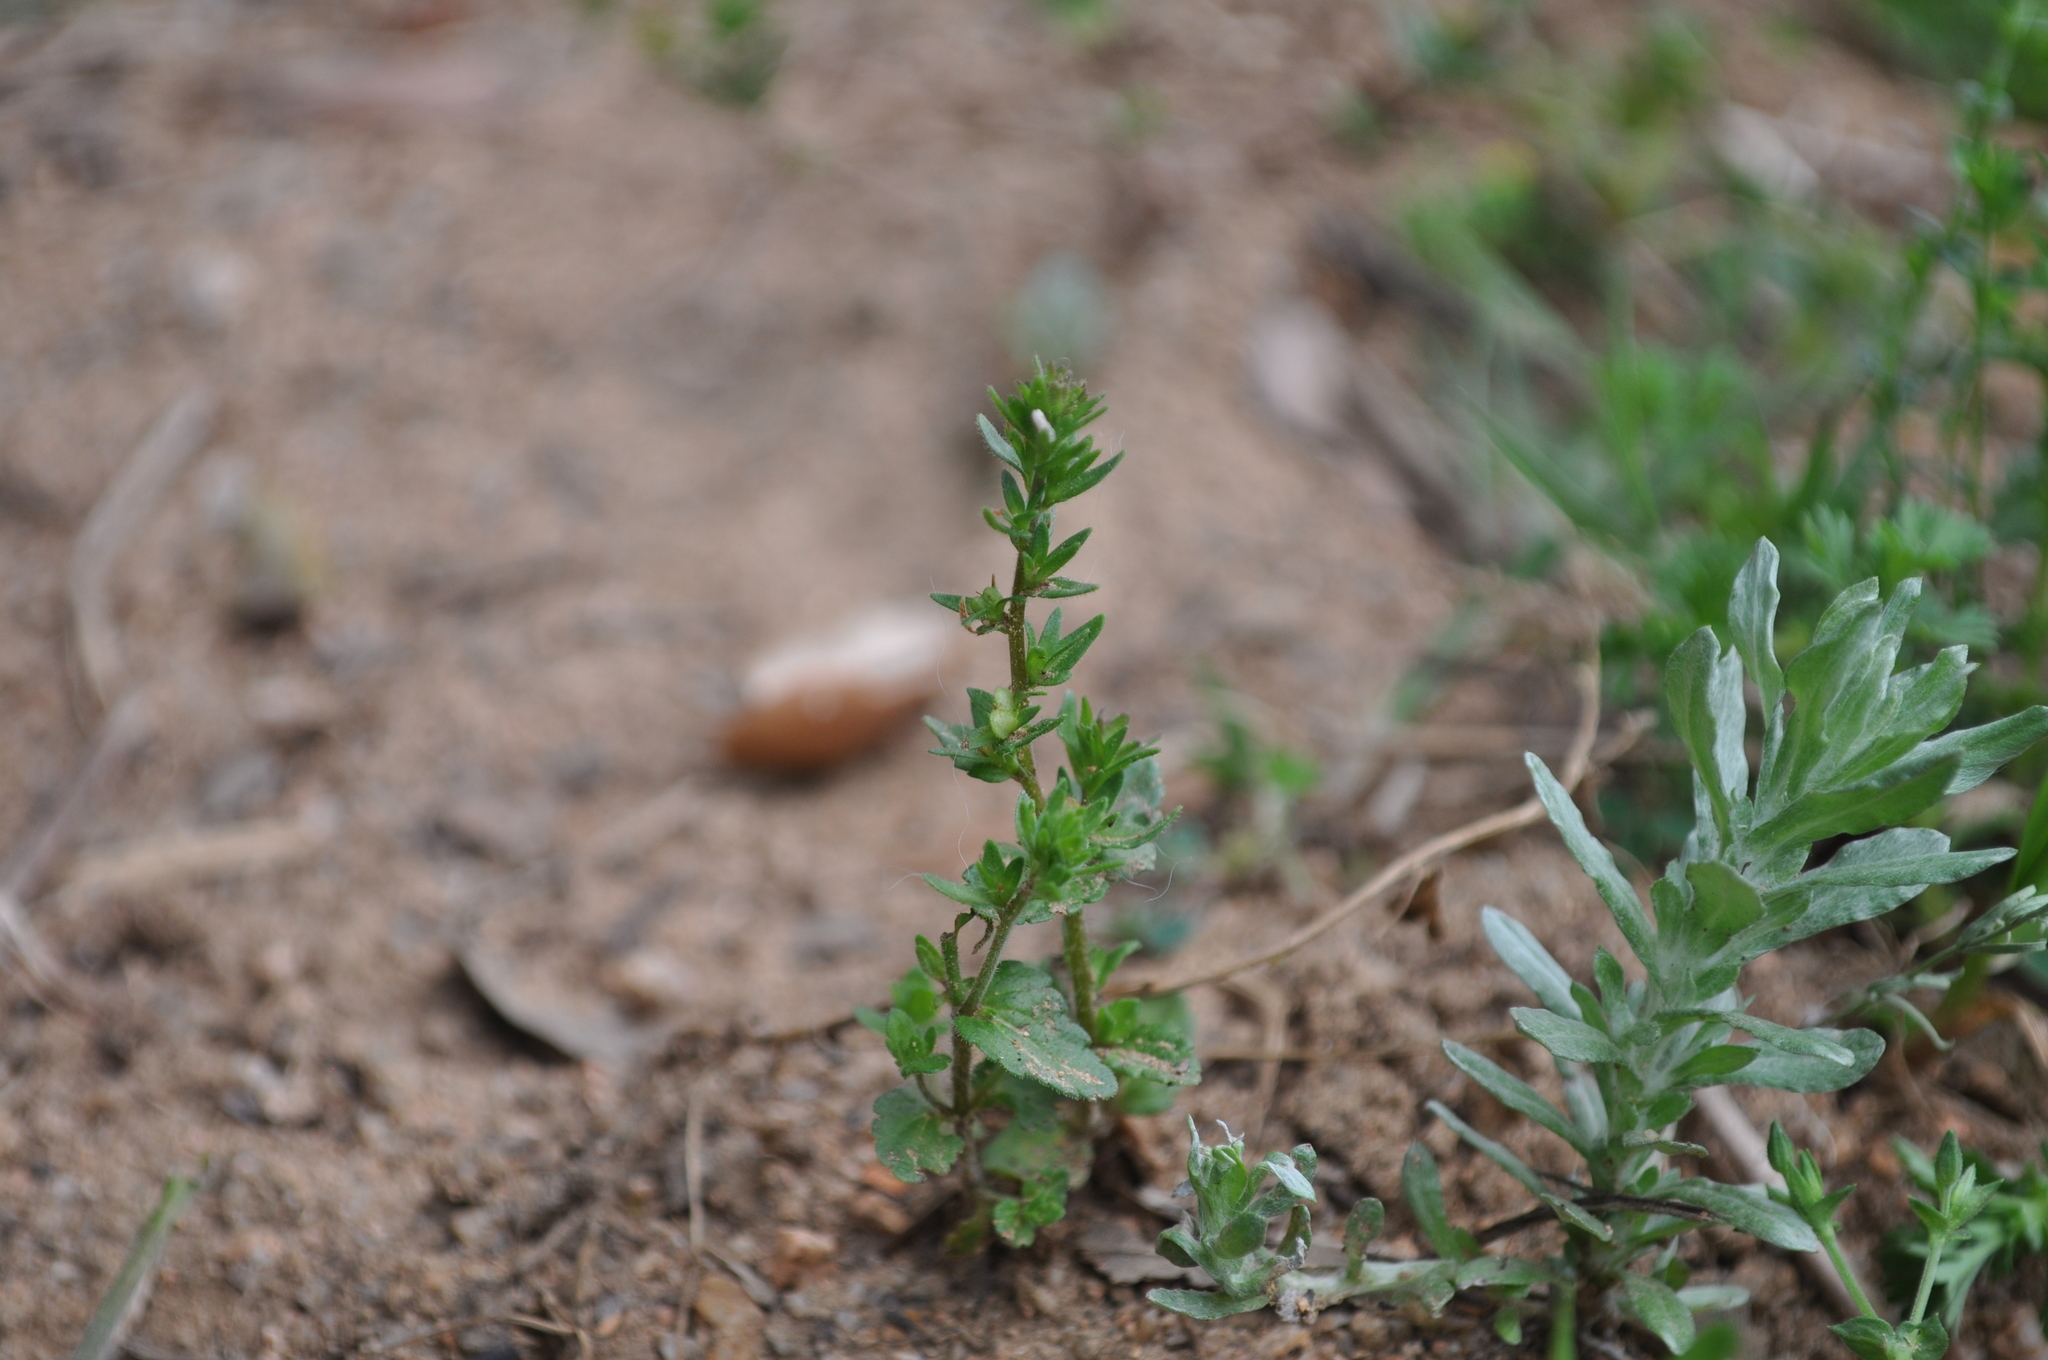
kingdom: Plantae
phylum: Tracheophyta
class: Magnoliopsida
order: Lamiales
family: Plantaginaceae
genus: Veronica
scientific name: Veronica arvensis
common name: Corn speedwell
